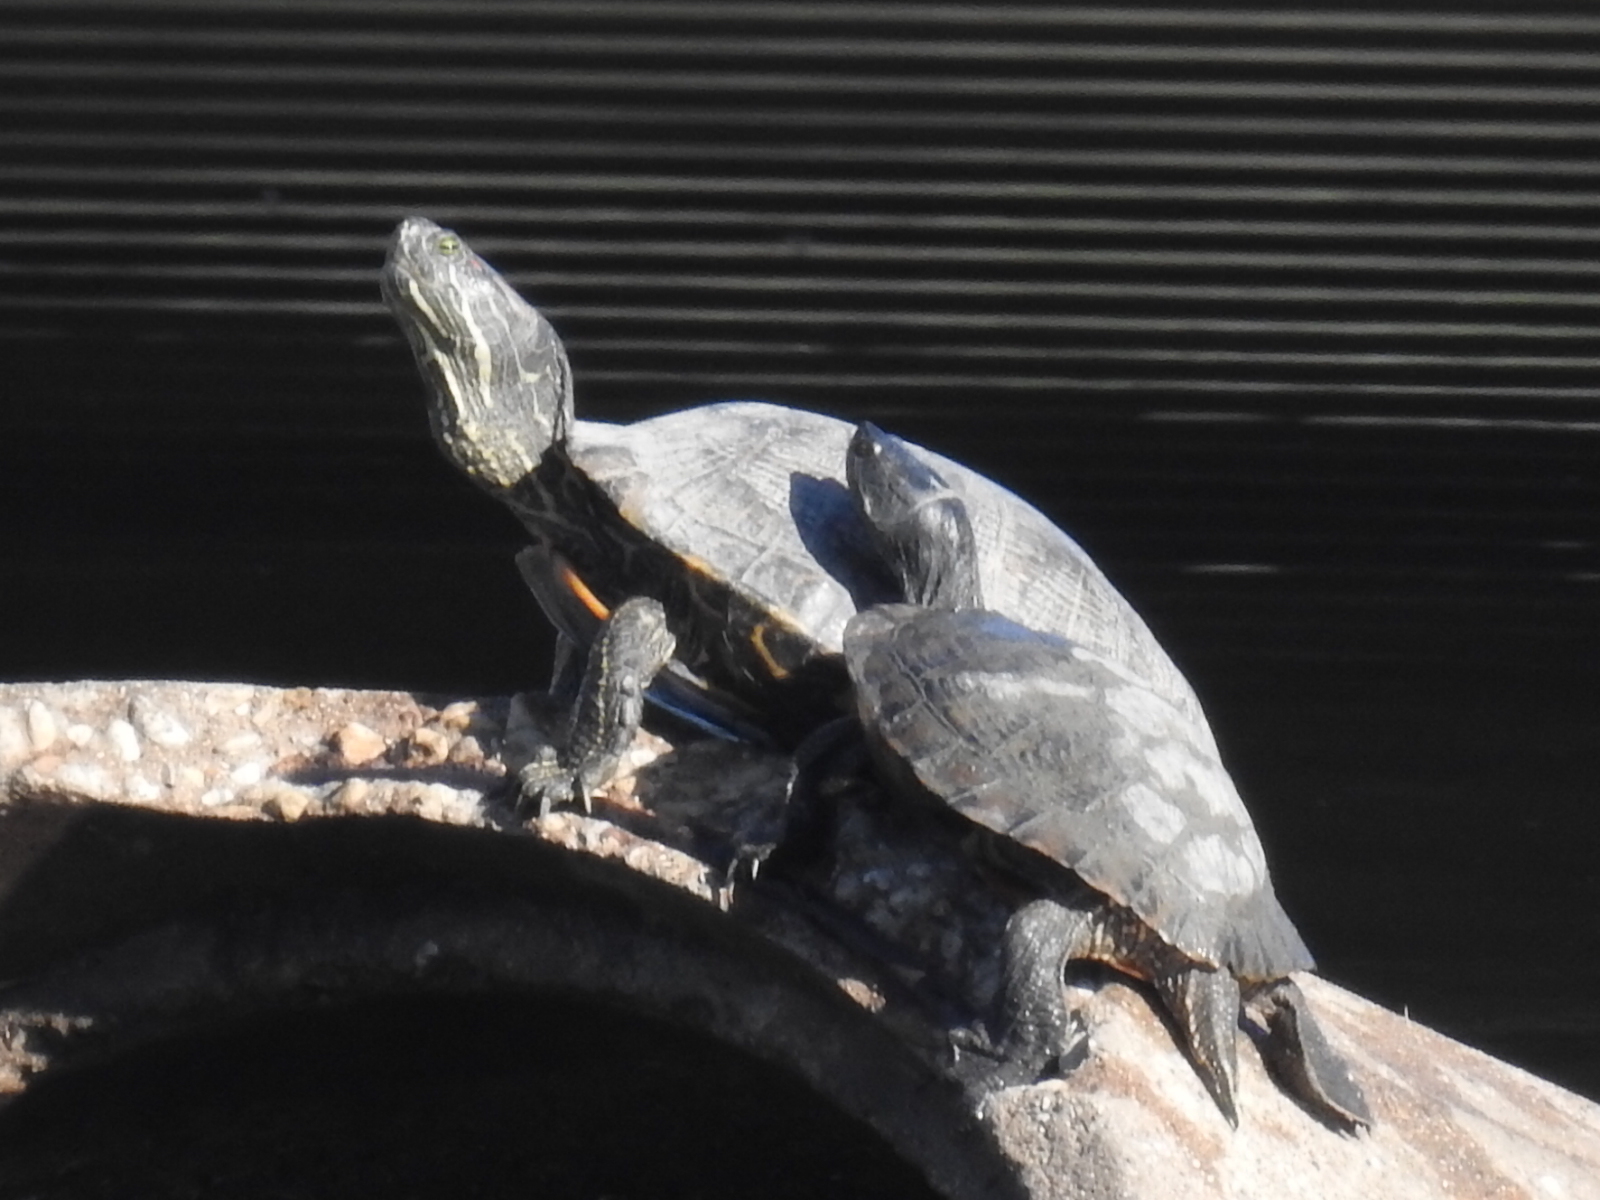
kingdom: Animalia
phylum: Chordata
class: Testudines
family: Emydidae
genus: Trachemys
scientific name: Trachemys scripta
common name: Slider
